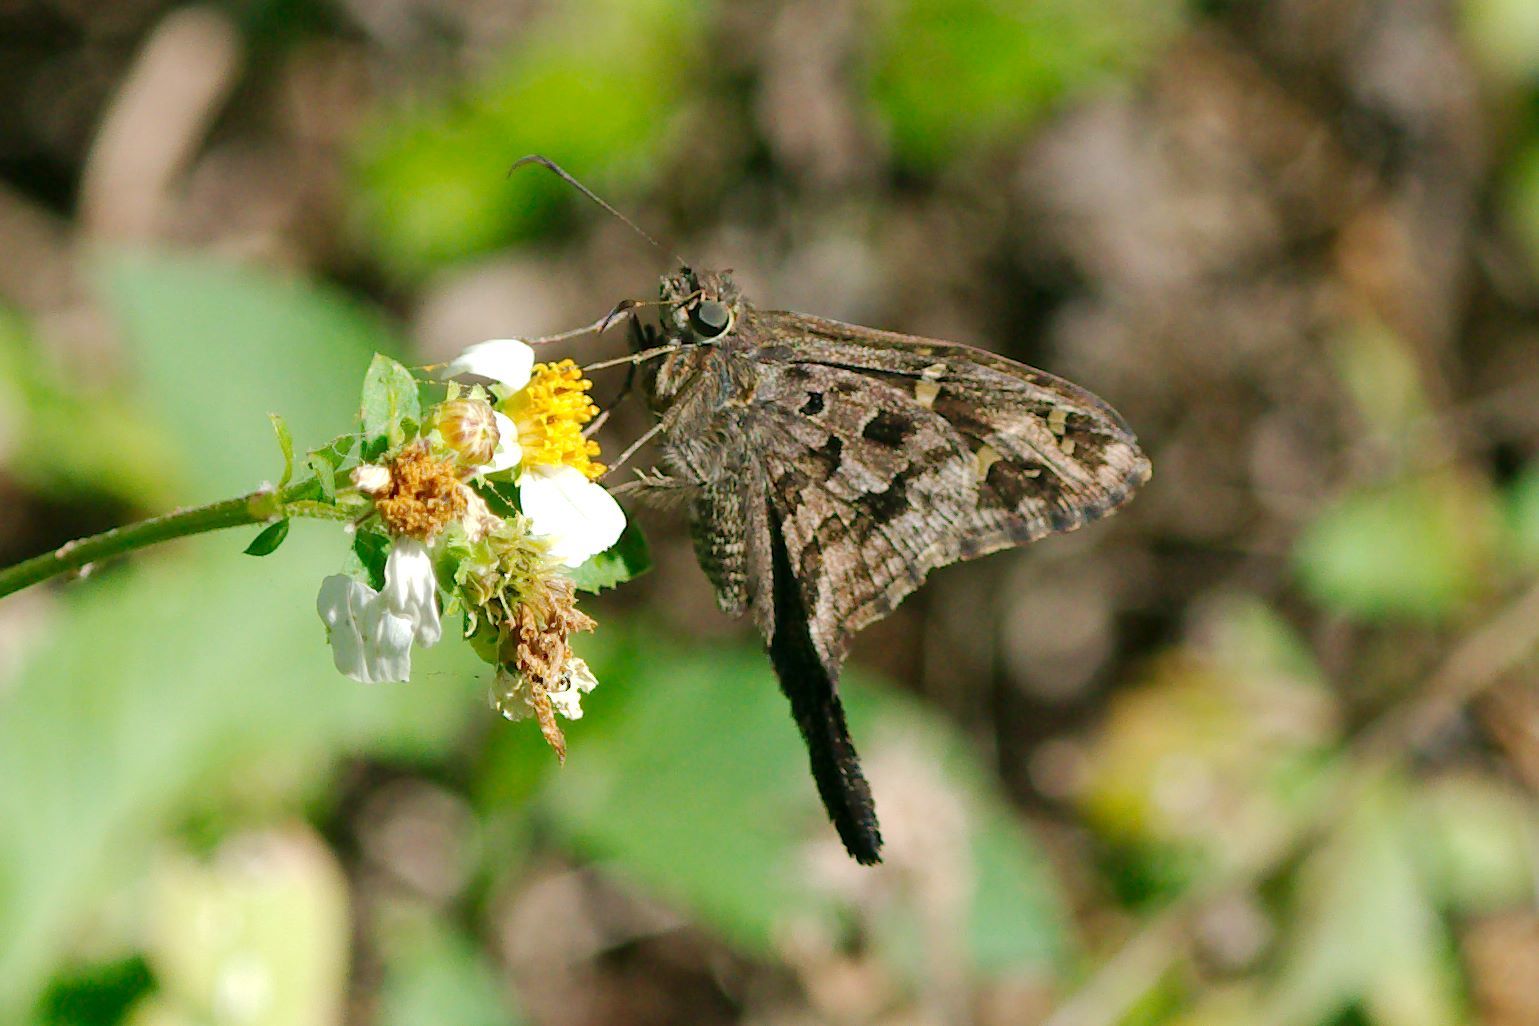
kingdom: Animalia
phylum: Arthropoda
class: Insecta
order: Lepidoptera
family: Hesperiidae
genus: Thorybes
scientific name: Thorybes
